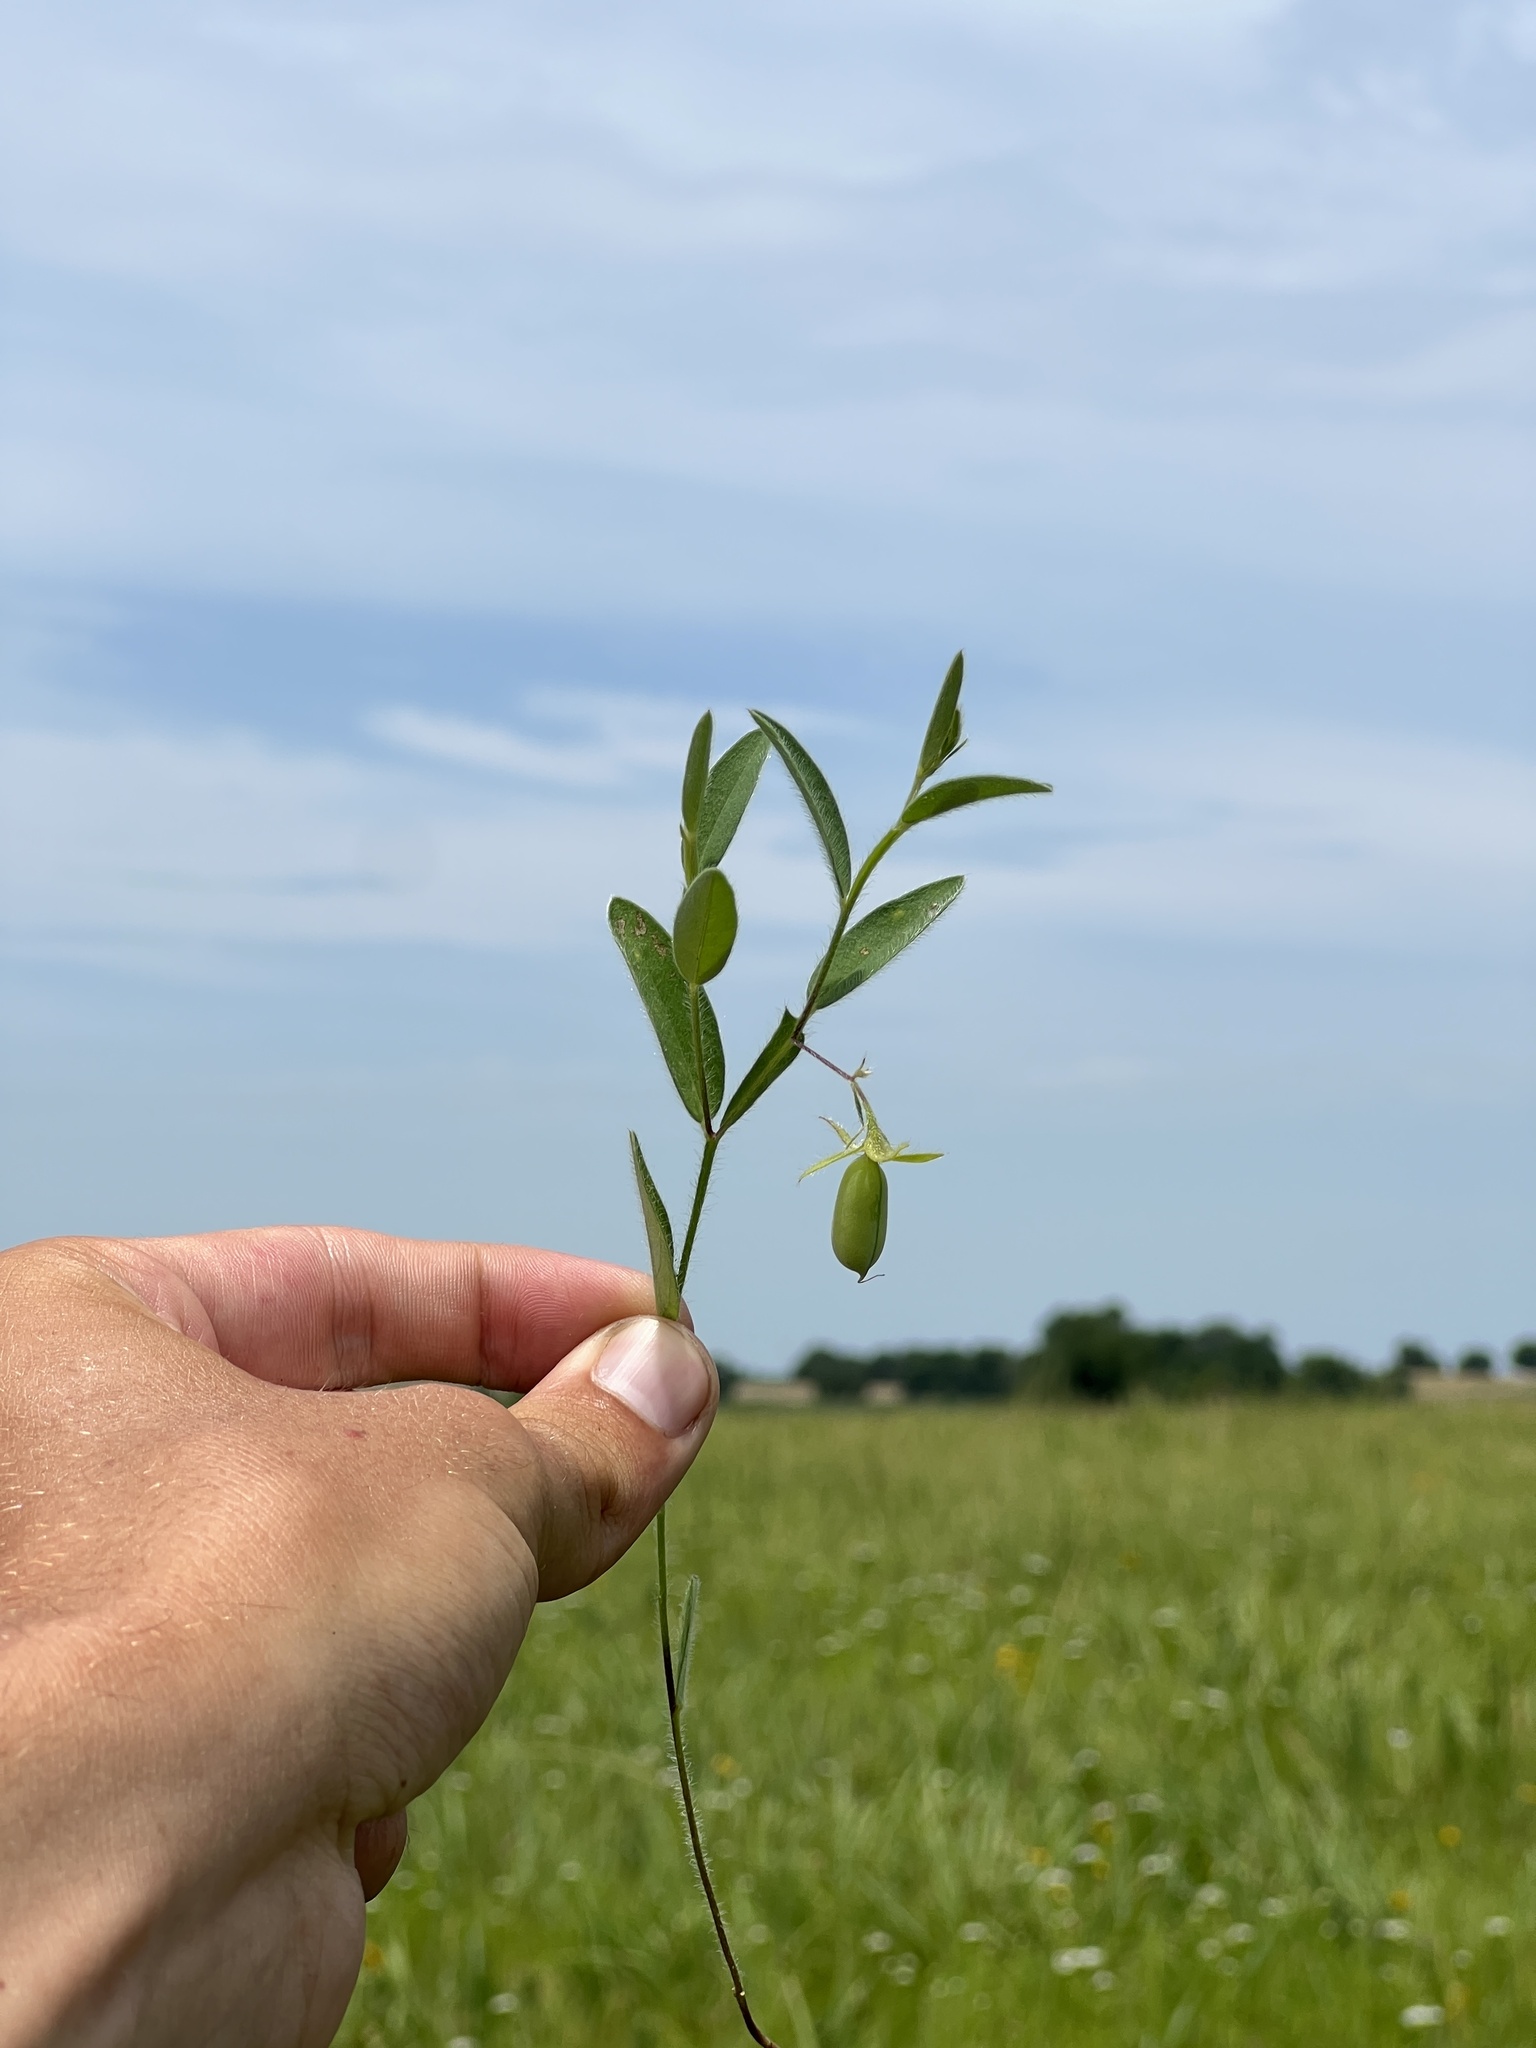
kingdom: Plantae
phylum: Tracheophyta
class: Magnoliopsida
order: Fabales
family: Fabaceae
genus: Crotalaria
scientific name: Crotalaria sagittalis
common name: Arrowhead rattlebox
